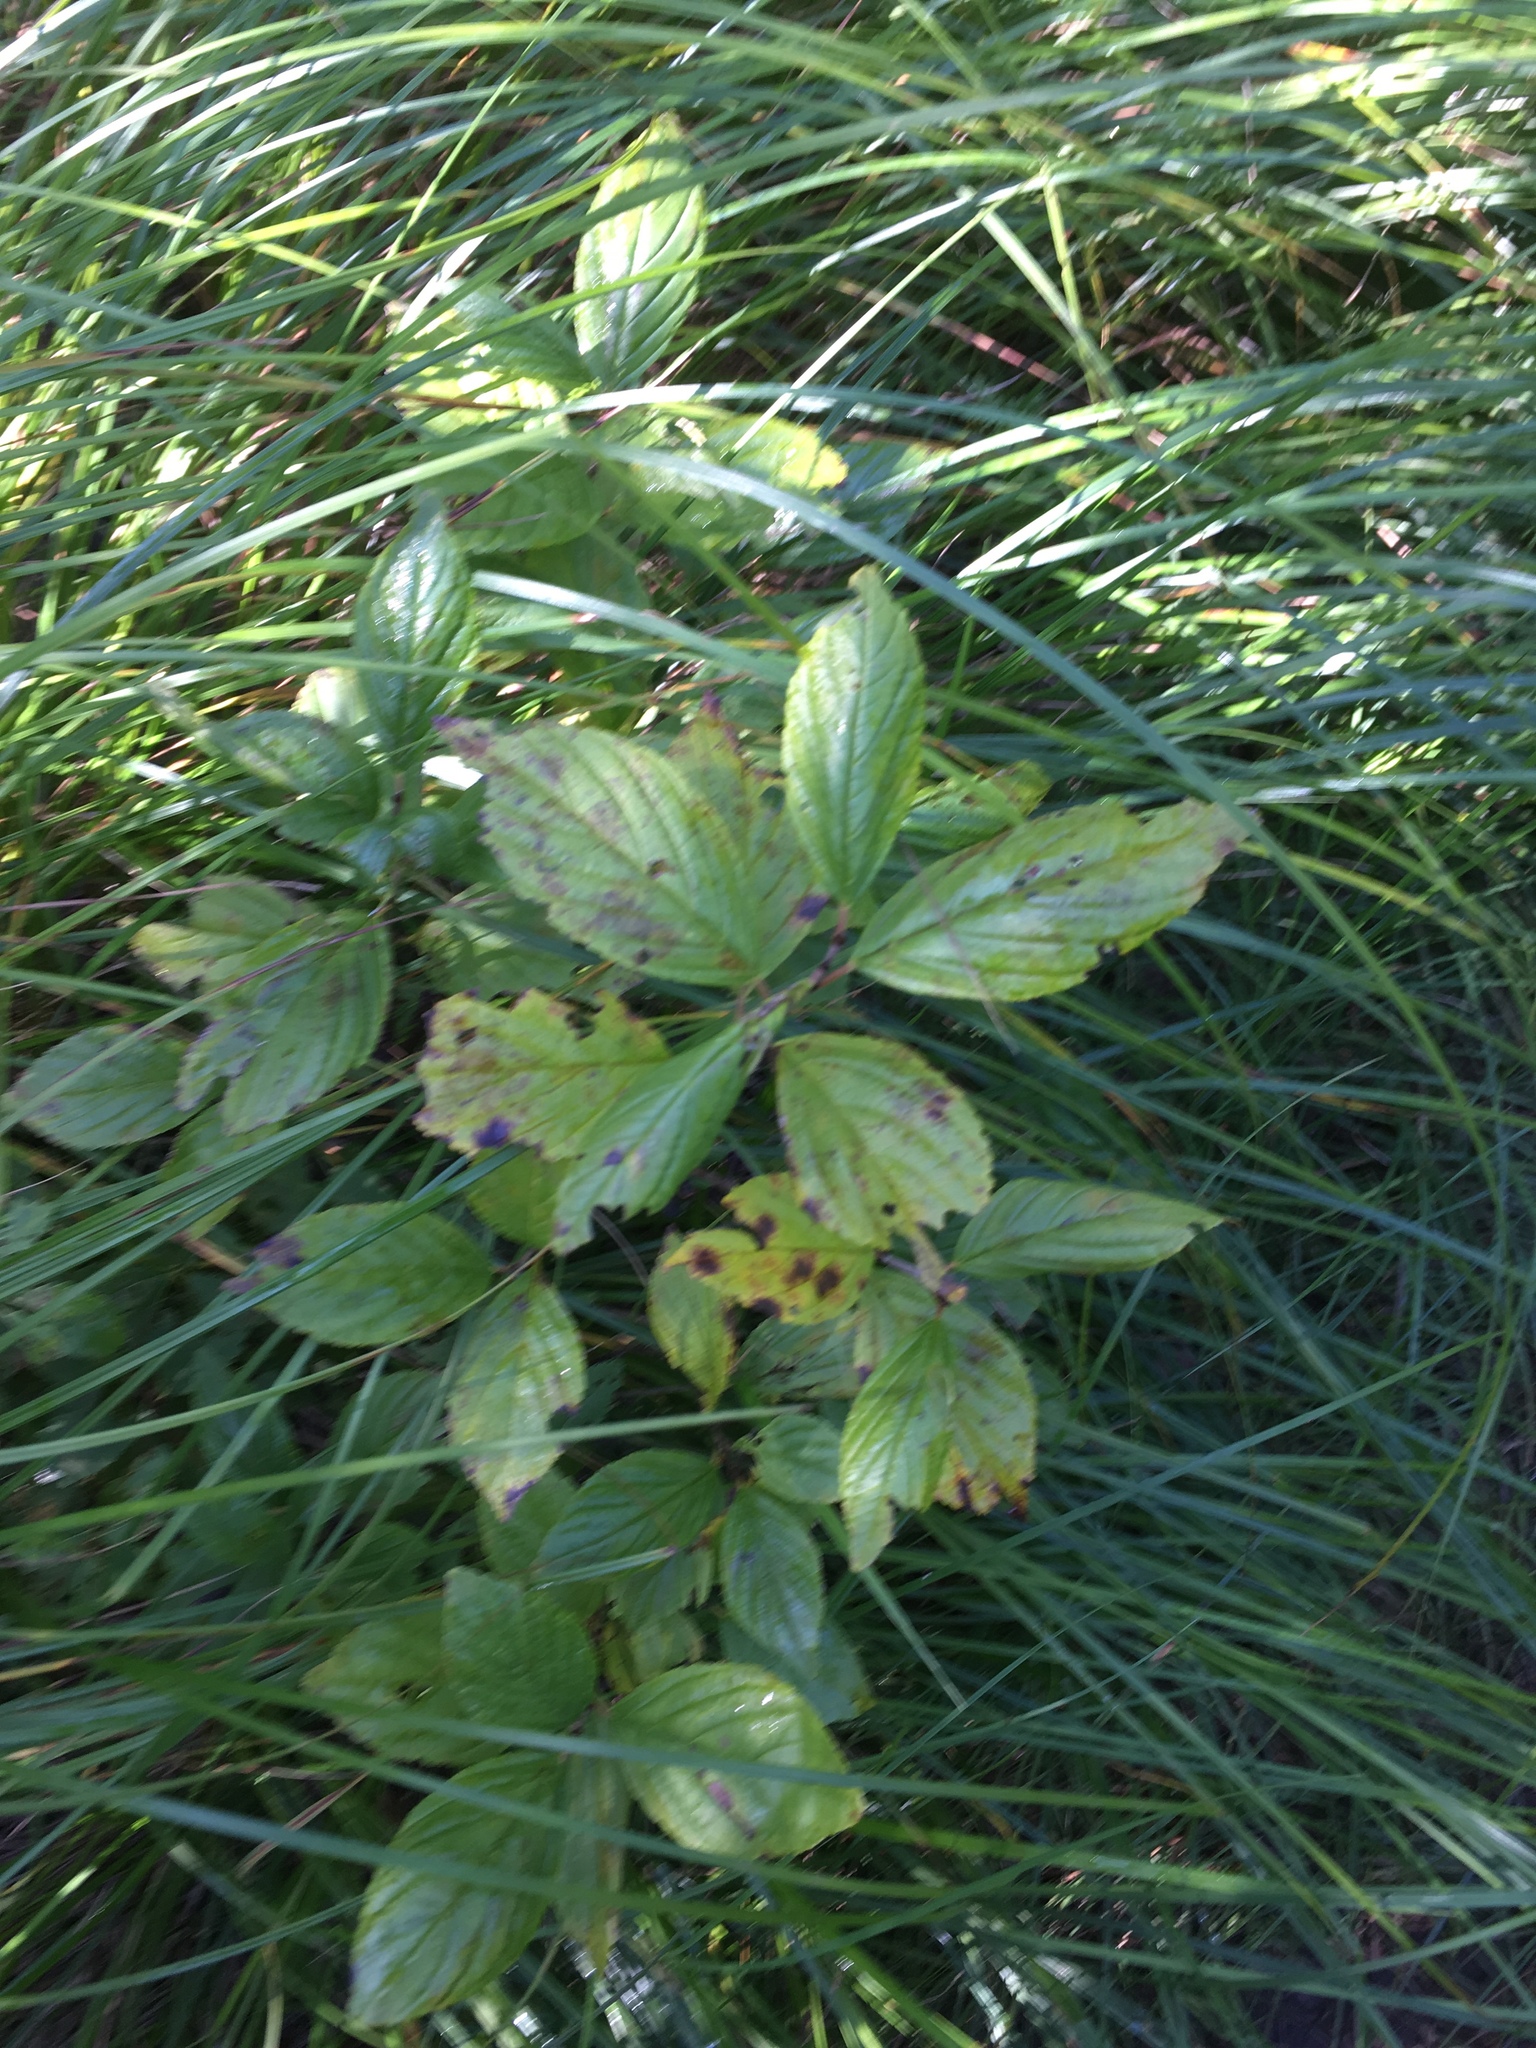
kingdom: Plantae
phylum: Tracheophyta
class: Magnoliopsida
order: Rosales
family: Rhamnaceae
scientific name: Rhamnaceae
